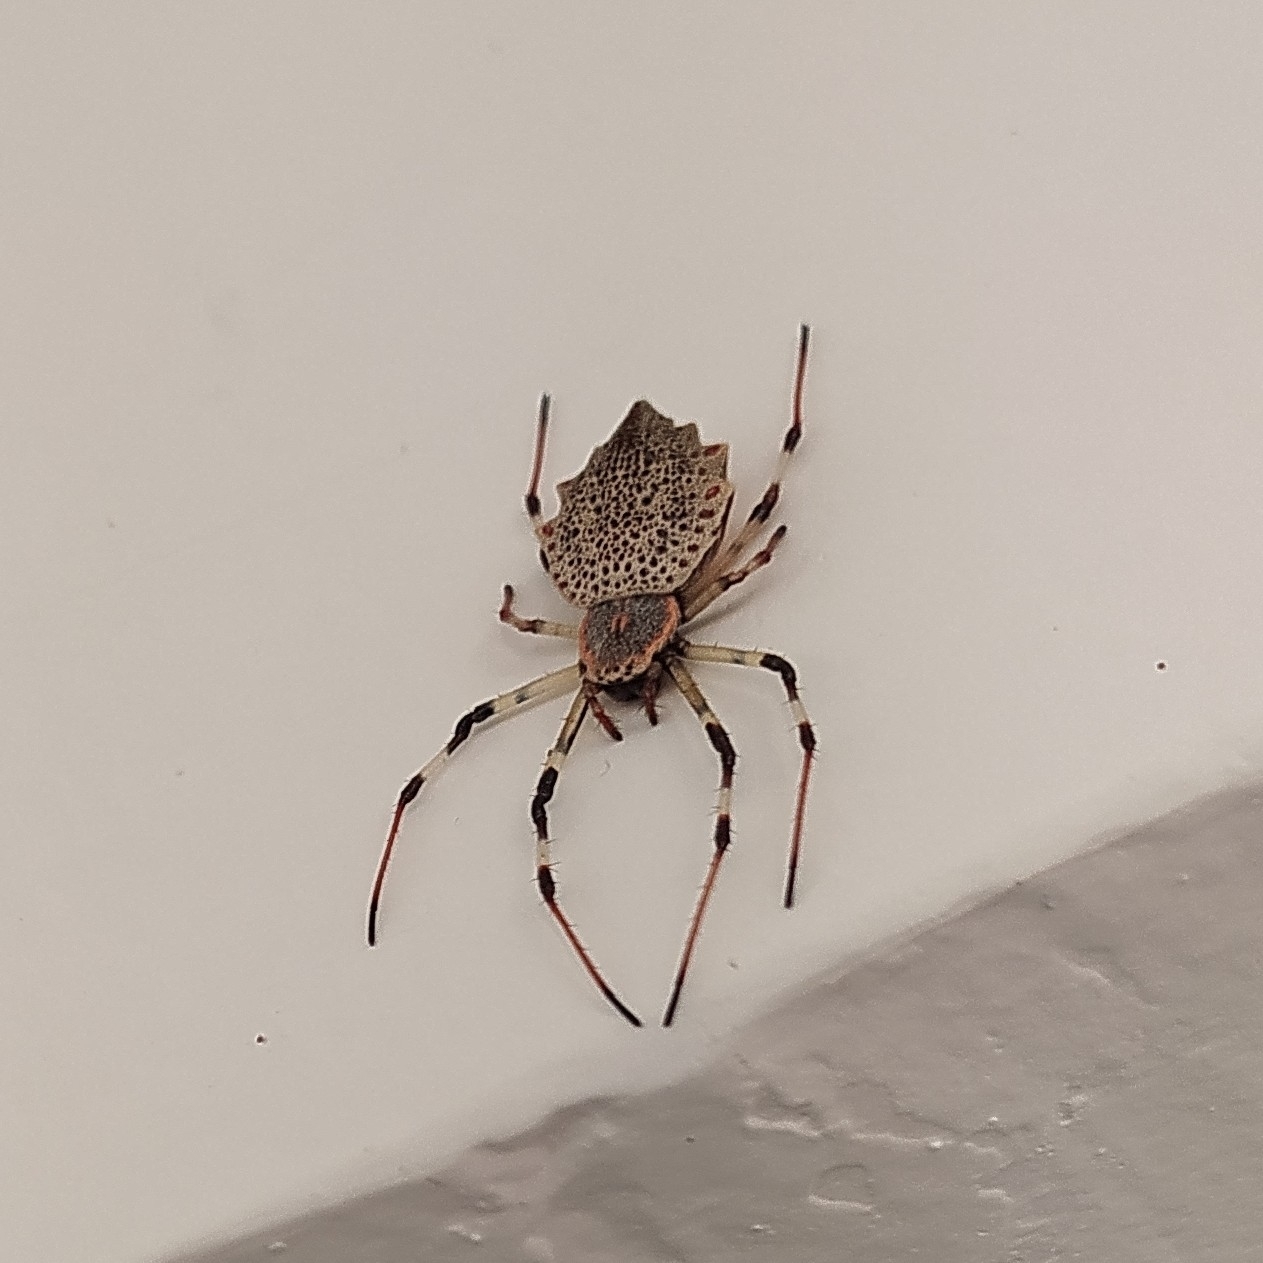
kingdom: Animalia
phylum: Arthropoda
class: Arachnida
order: Araneae
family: Araneidae
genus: Herennia
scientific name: Herennia multipuncta
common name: Spotted coin spider
